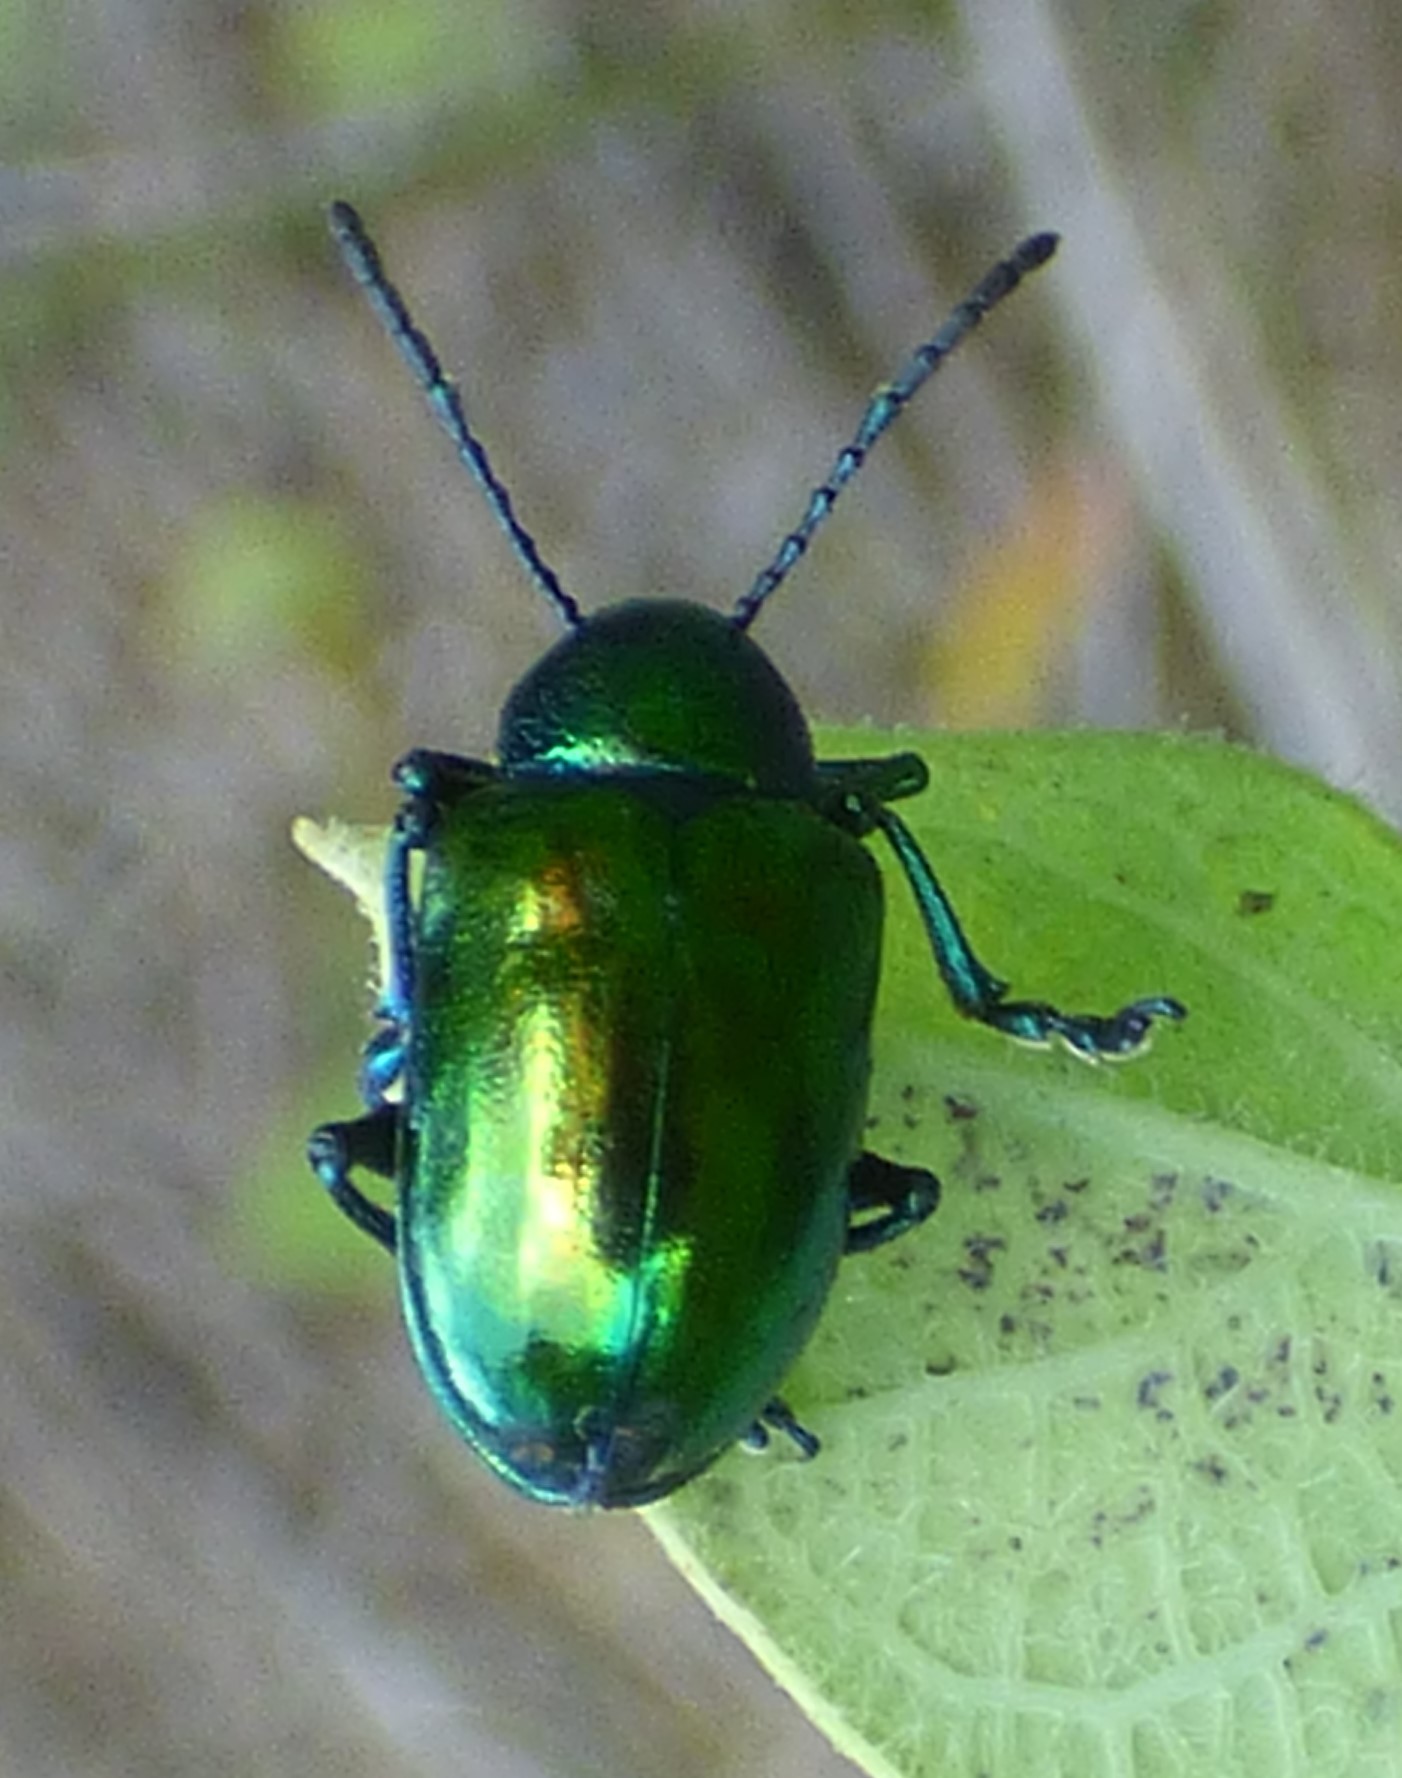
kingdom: Animalia
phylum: Arthropoda
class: Insecta
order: Coleoptera
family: Chrysomelidae
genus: Chrysochus
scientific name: Chrysochus auratus
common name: Dogbane leaf beetle
